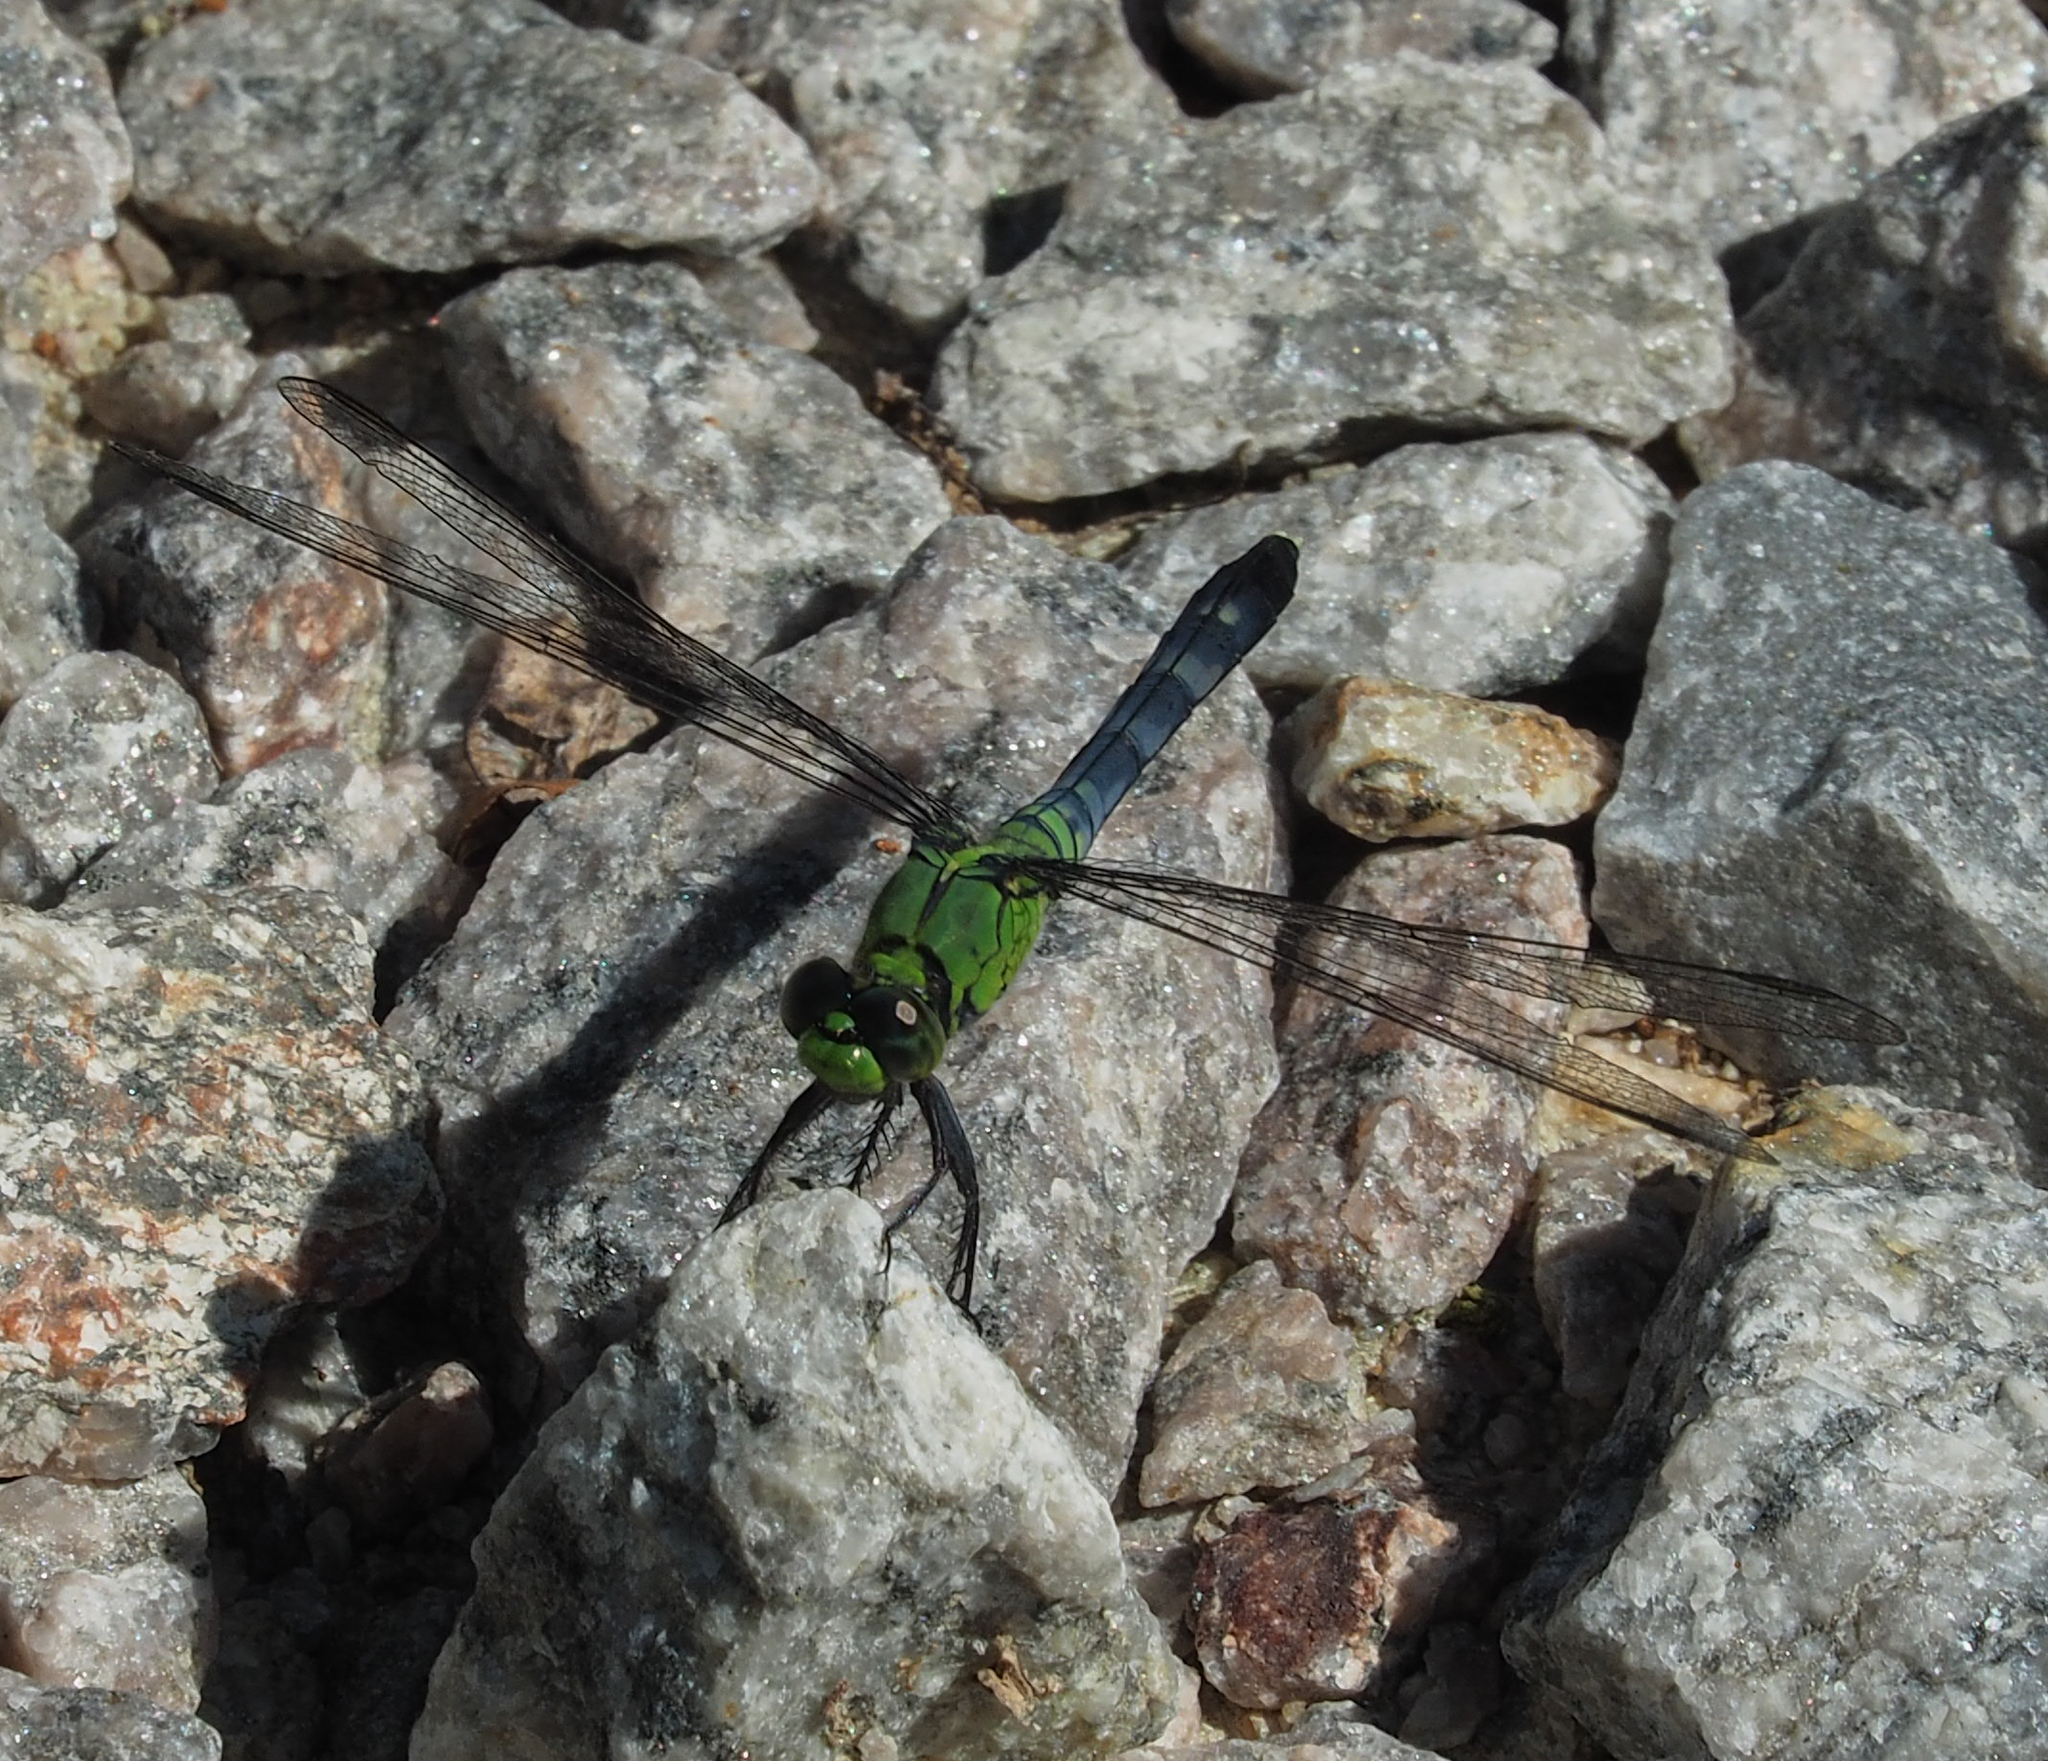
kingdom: Animalia
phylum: Arthropoda
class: Insecta
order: Odonata
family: Libellulidae
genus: Erythemis
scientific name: Erythemis simplicicollis
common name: Eastern pondhawk
